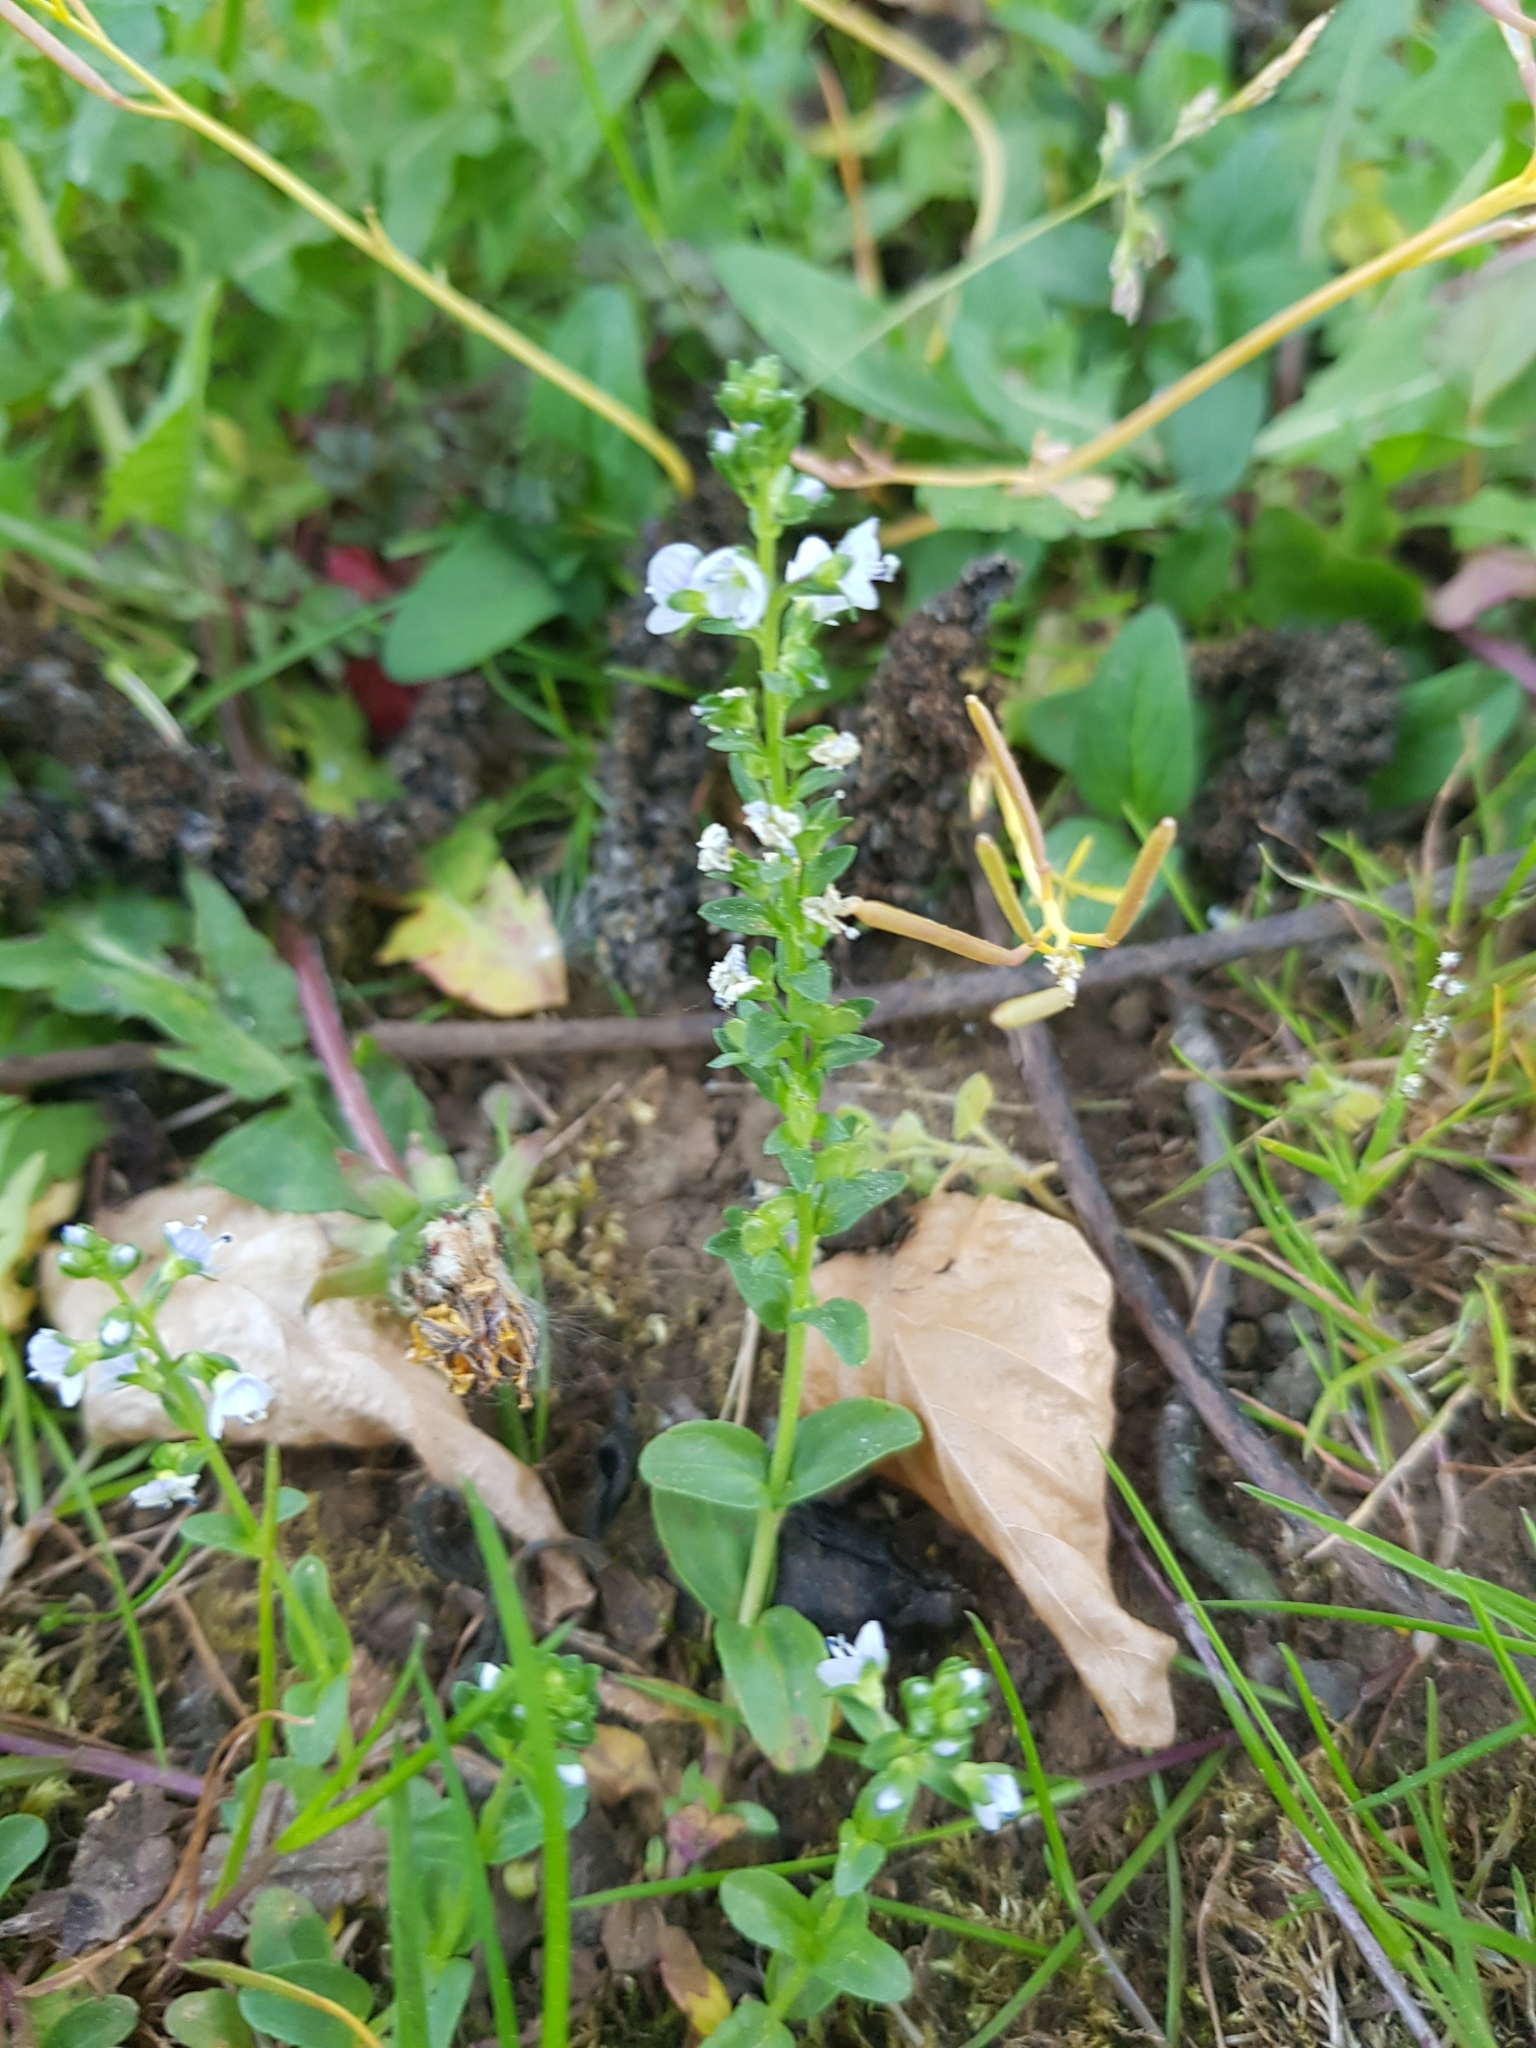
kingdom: Plantae
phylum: Tracheophyta
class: Magnoliopsida
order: Lamiales
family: Plantaginaceae
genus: Veronica
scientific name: Veronica serpyllifolia
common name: Thyme-leaved speedwell
